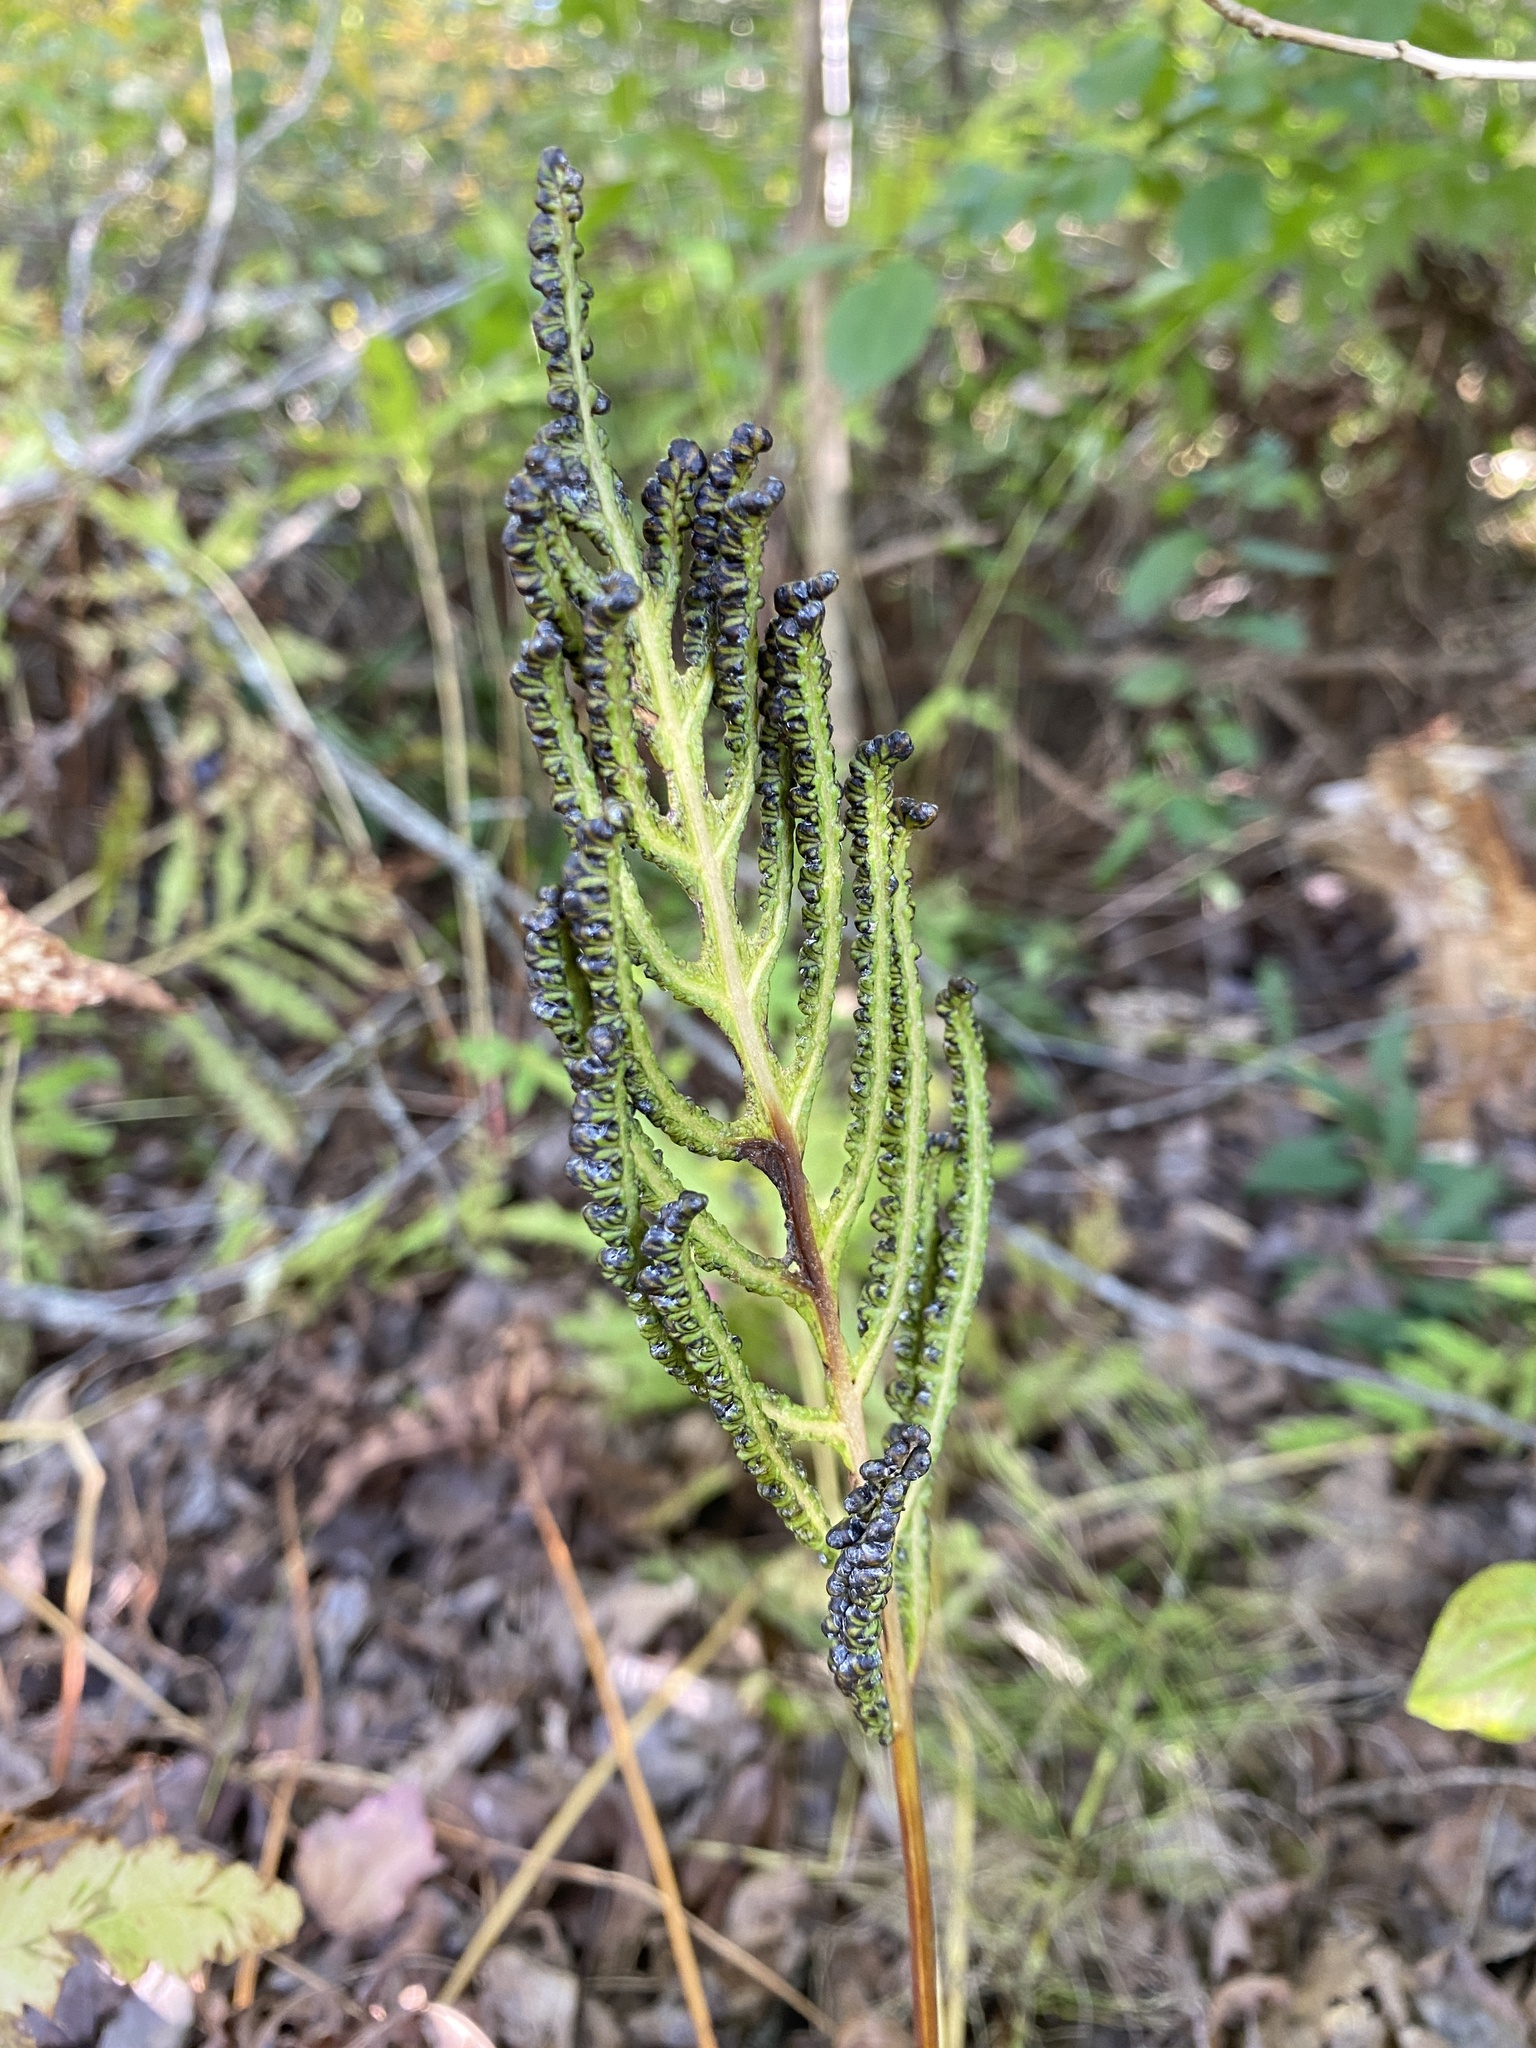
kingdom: Plantae
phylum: Tracheophyta
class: Polypodiopsida
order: Polypodiales
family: Onocleaceae
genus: Onoclea
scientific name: Onoclea sensibilis
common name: Sensitive fern
